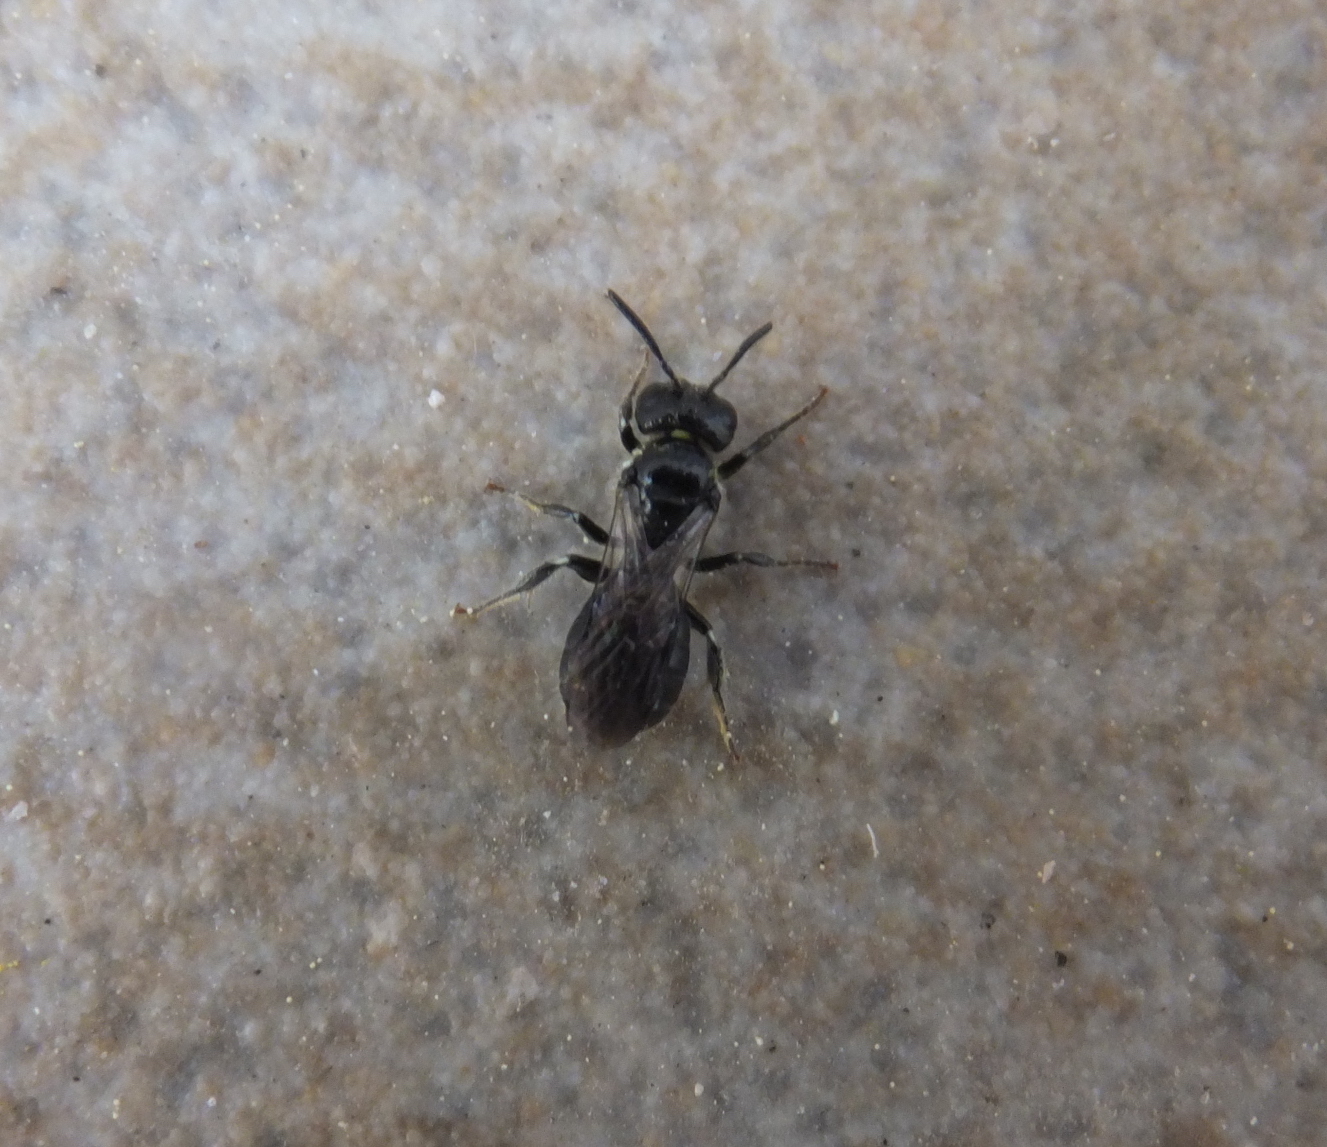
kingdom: Animalia
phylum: Arthropoda
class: Insecta
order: Hymenoptera
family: Apidae
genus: Ceratina
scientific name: Ceratina cucurbitina
